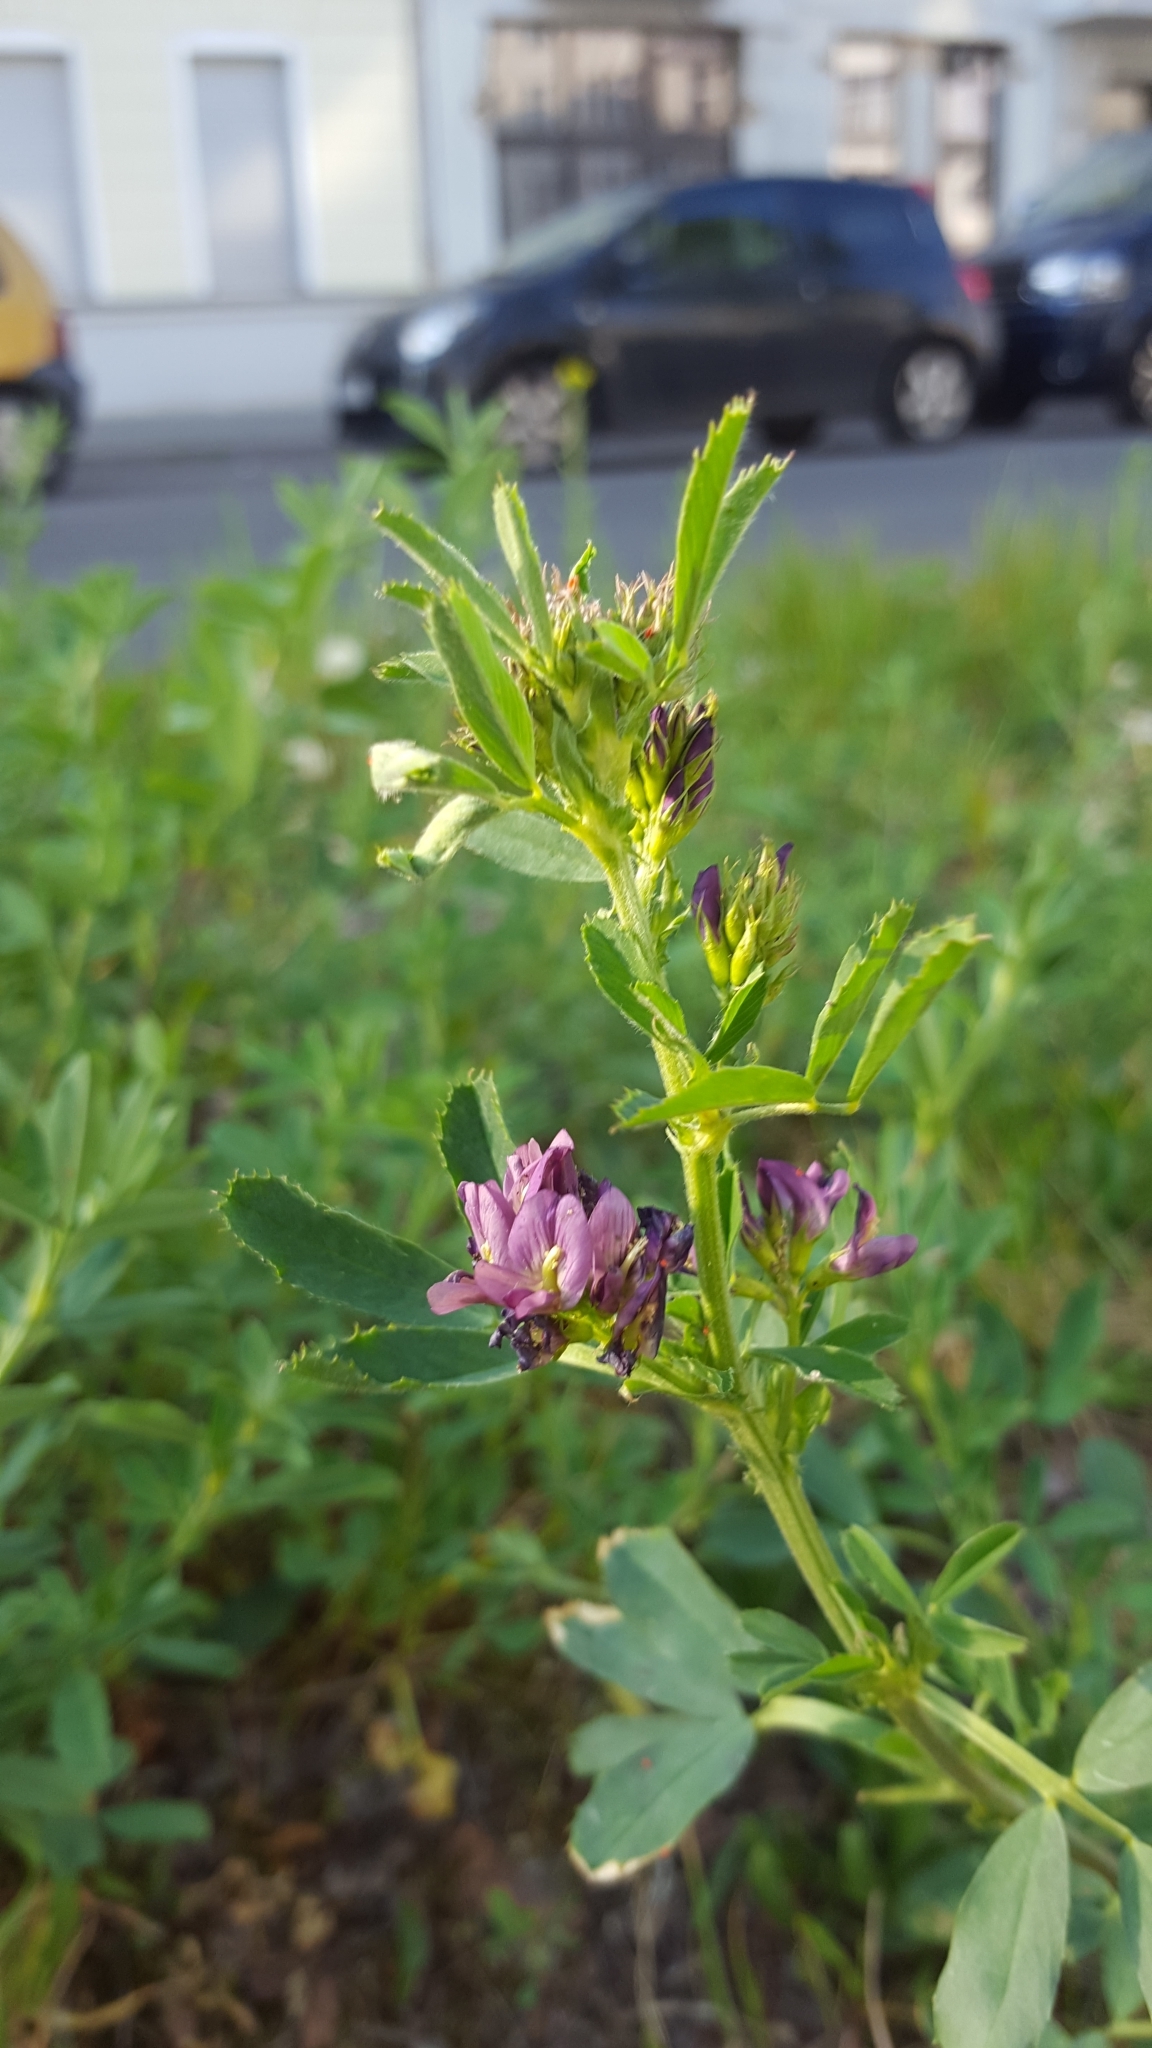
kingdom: Plantae
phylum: Tracheophyta
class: Magnoliopsida
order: Fabales
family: Fabaceae
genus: Medicago
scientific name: Medicago varia
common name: Sand lucerne
